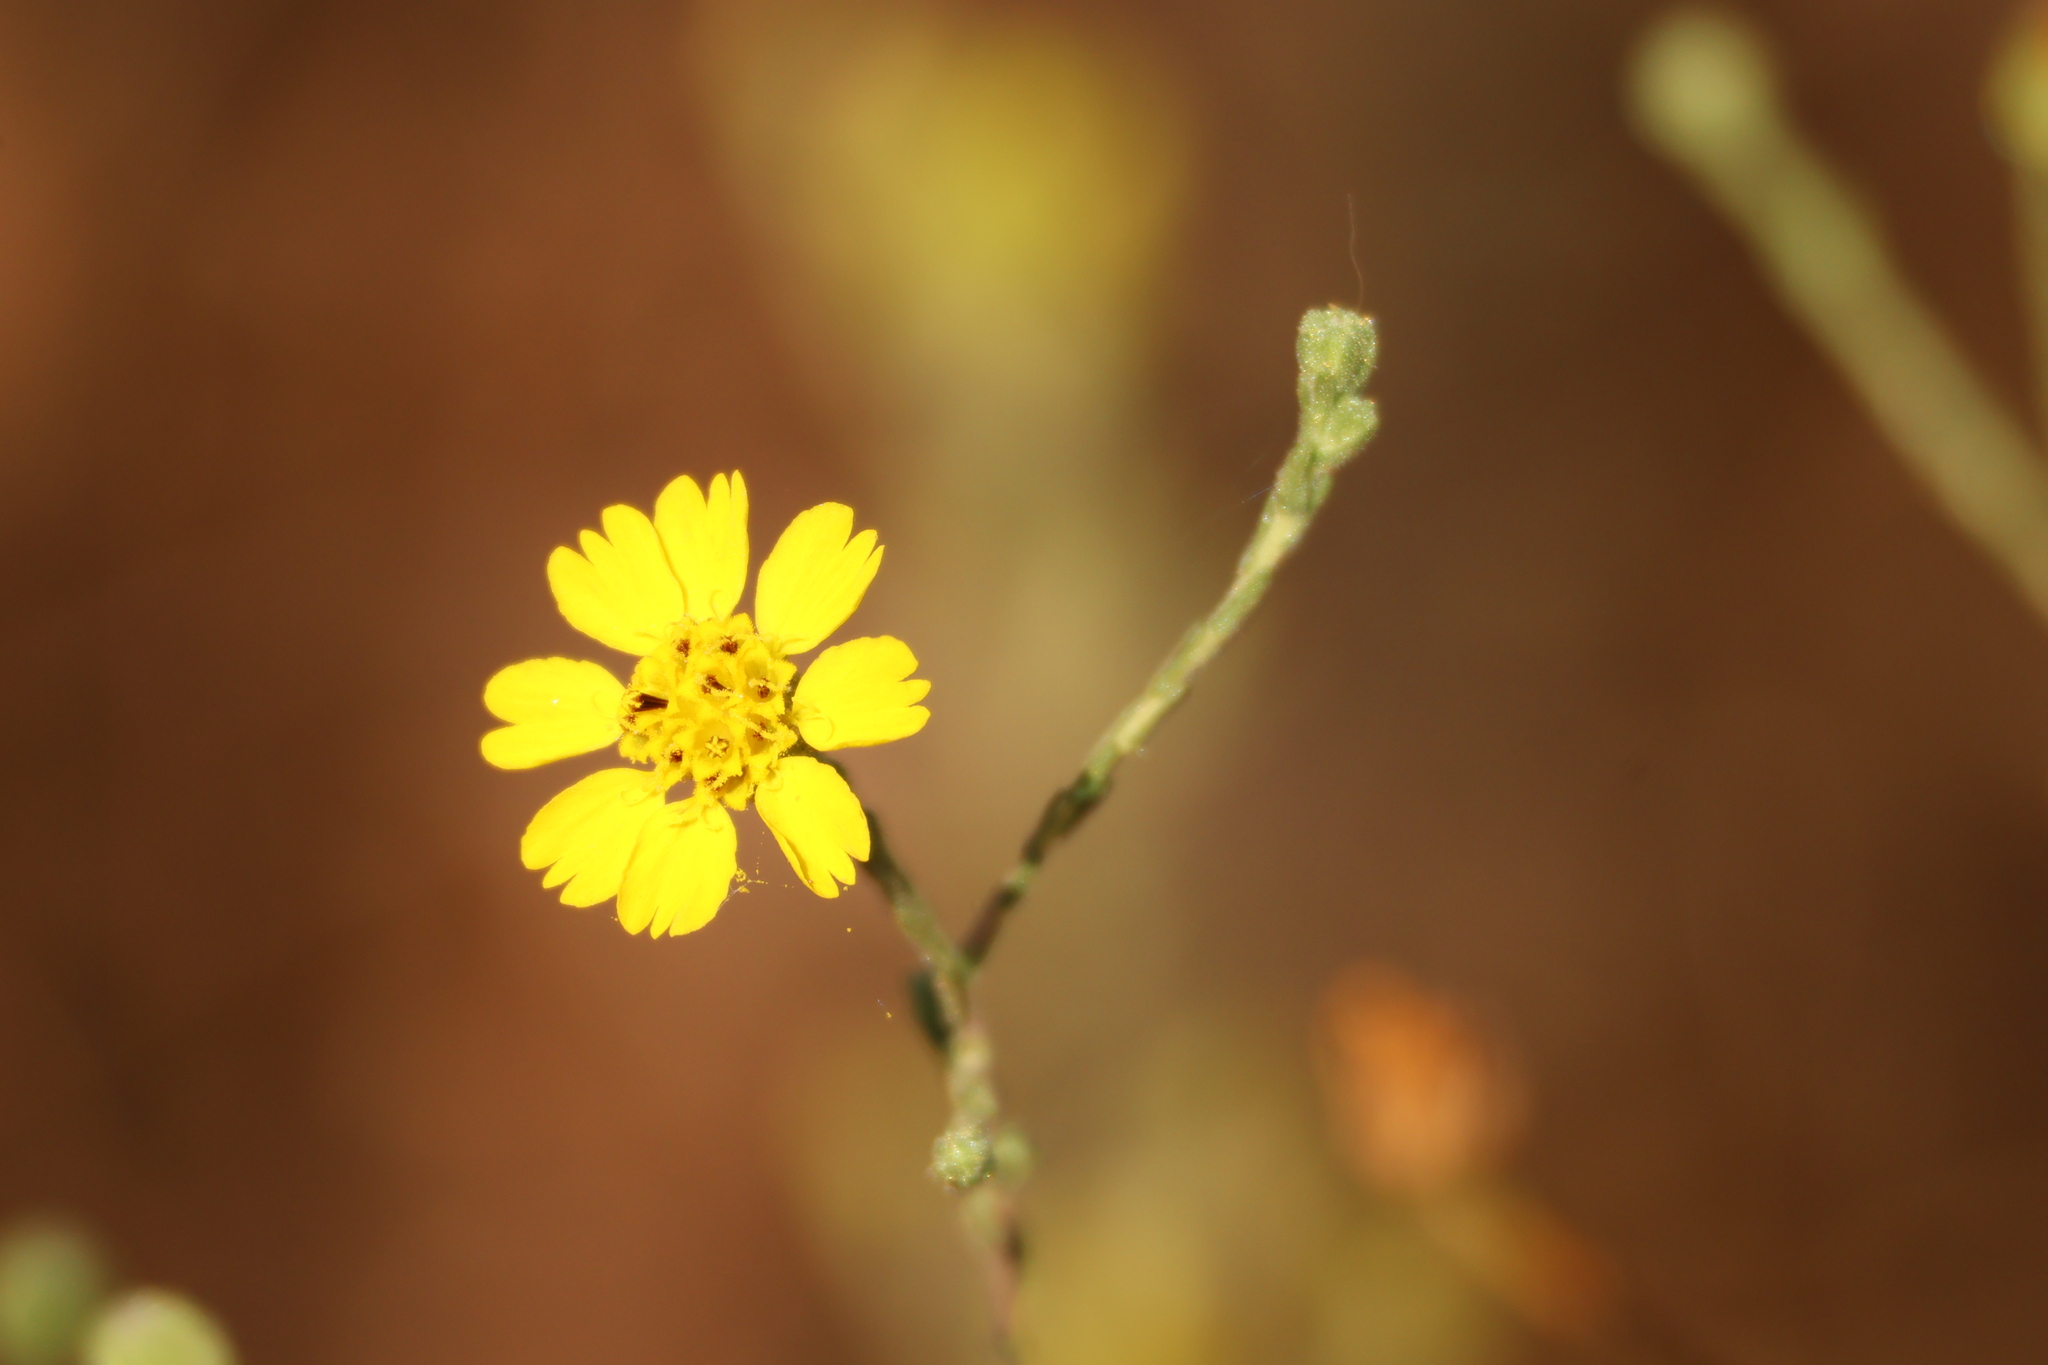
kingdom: Plantae
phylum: Tracheophyta
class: Magnoliopsida
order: Asterales
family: Asteraceae
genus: Deinandra
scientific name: Deinandra paniculata
